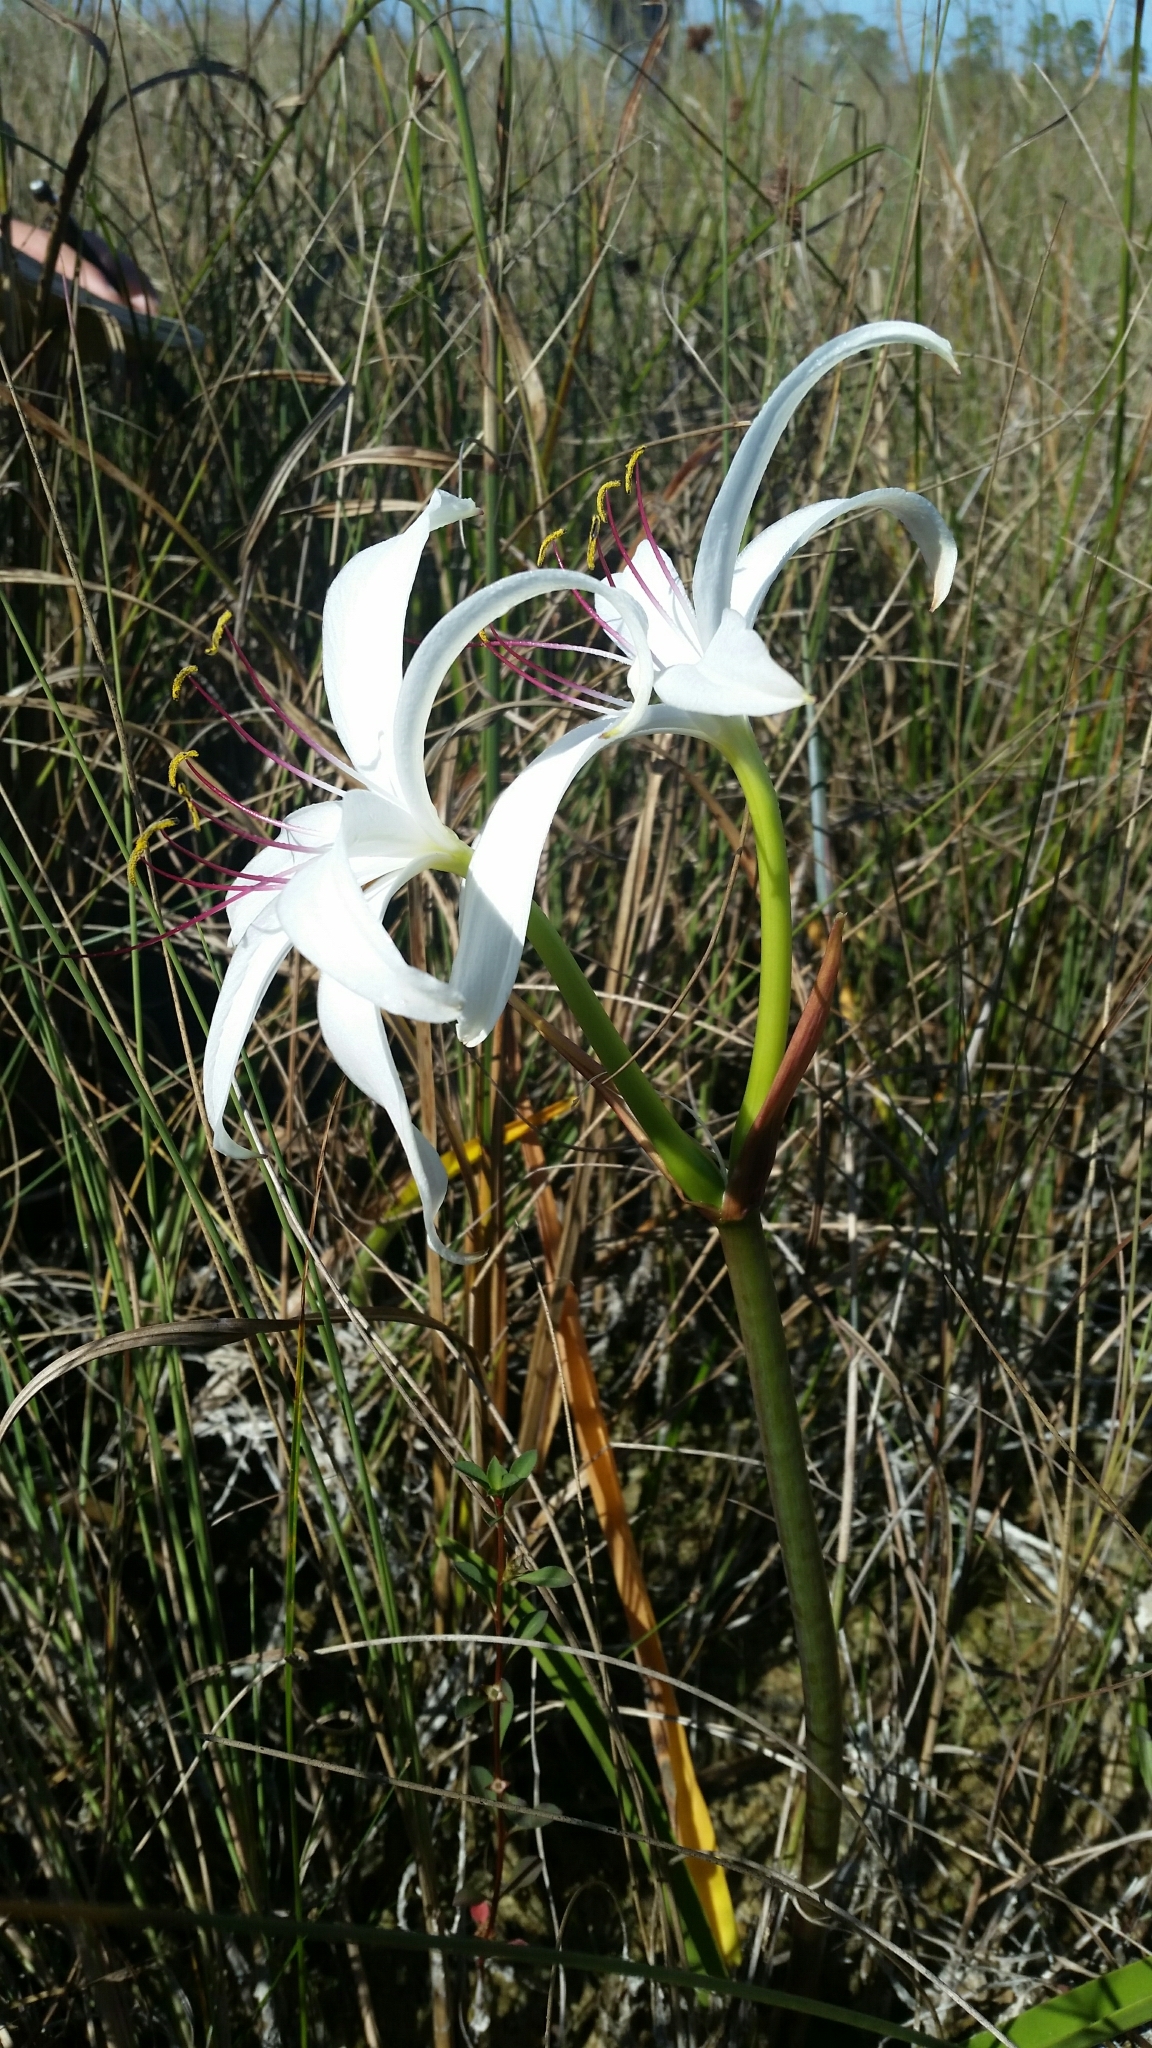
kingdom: Plantae
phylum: Tracheophyta
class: Liliopsida
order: Asparagales
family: Amaryllidaceae
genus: Crinum
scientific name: Crinum americanum
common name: Florida swamp-lily
